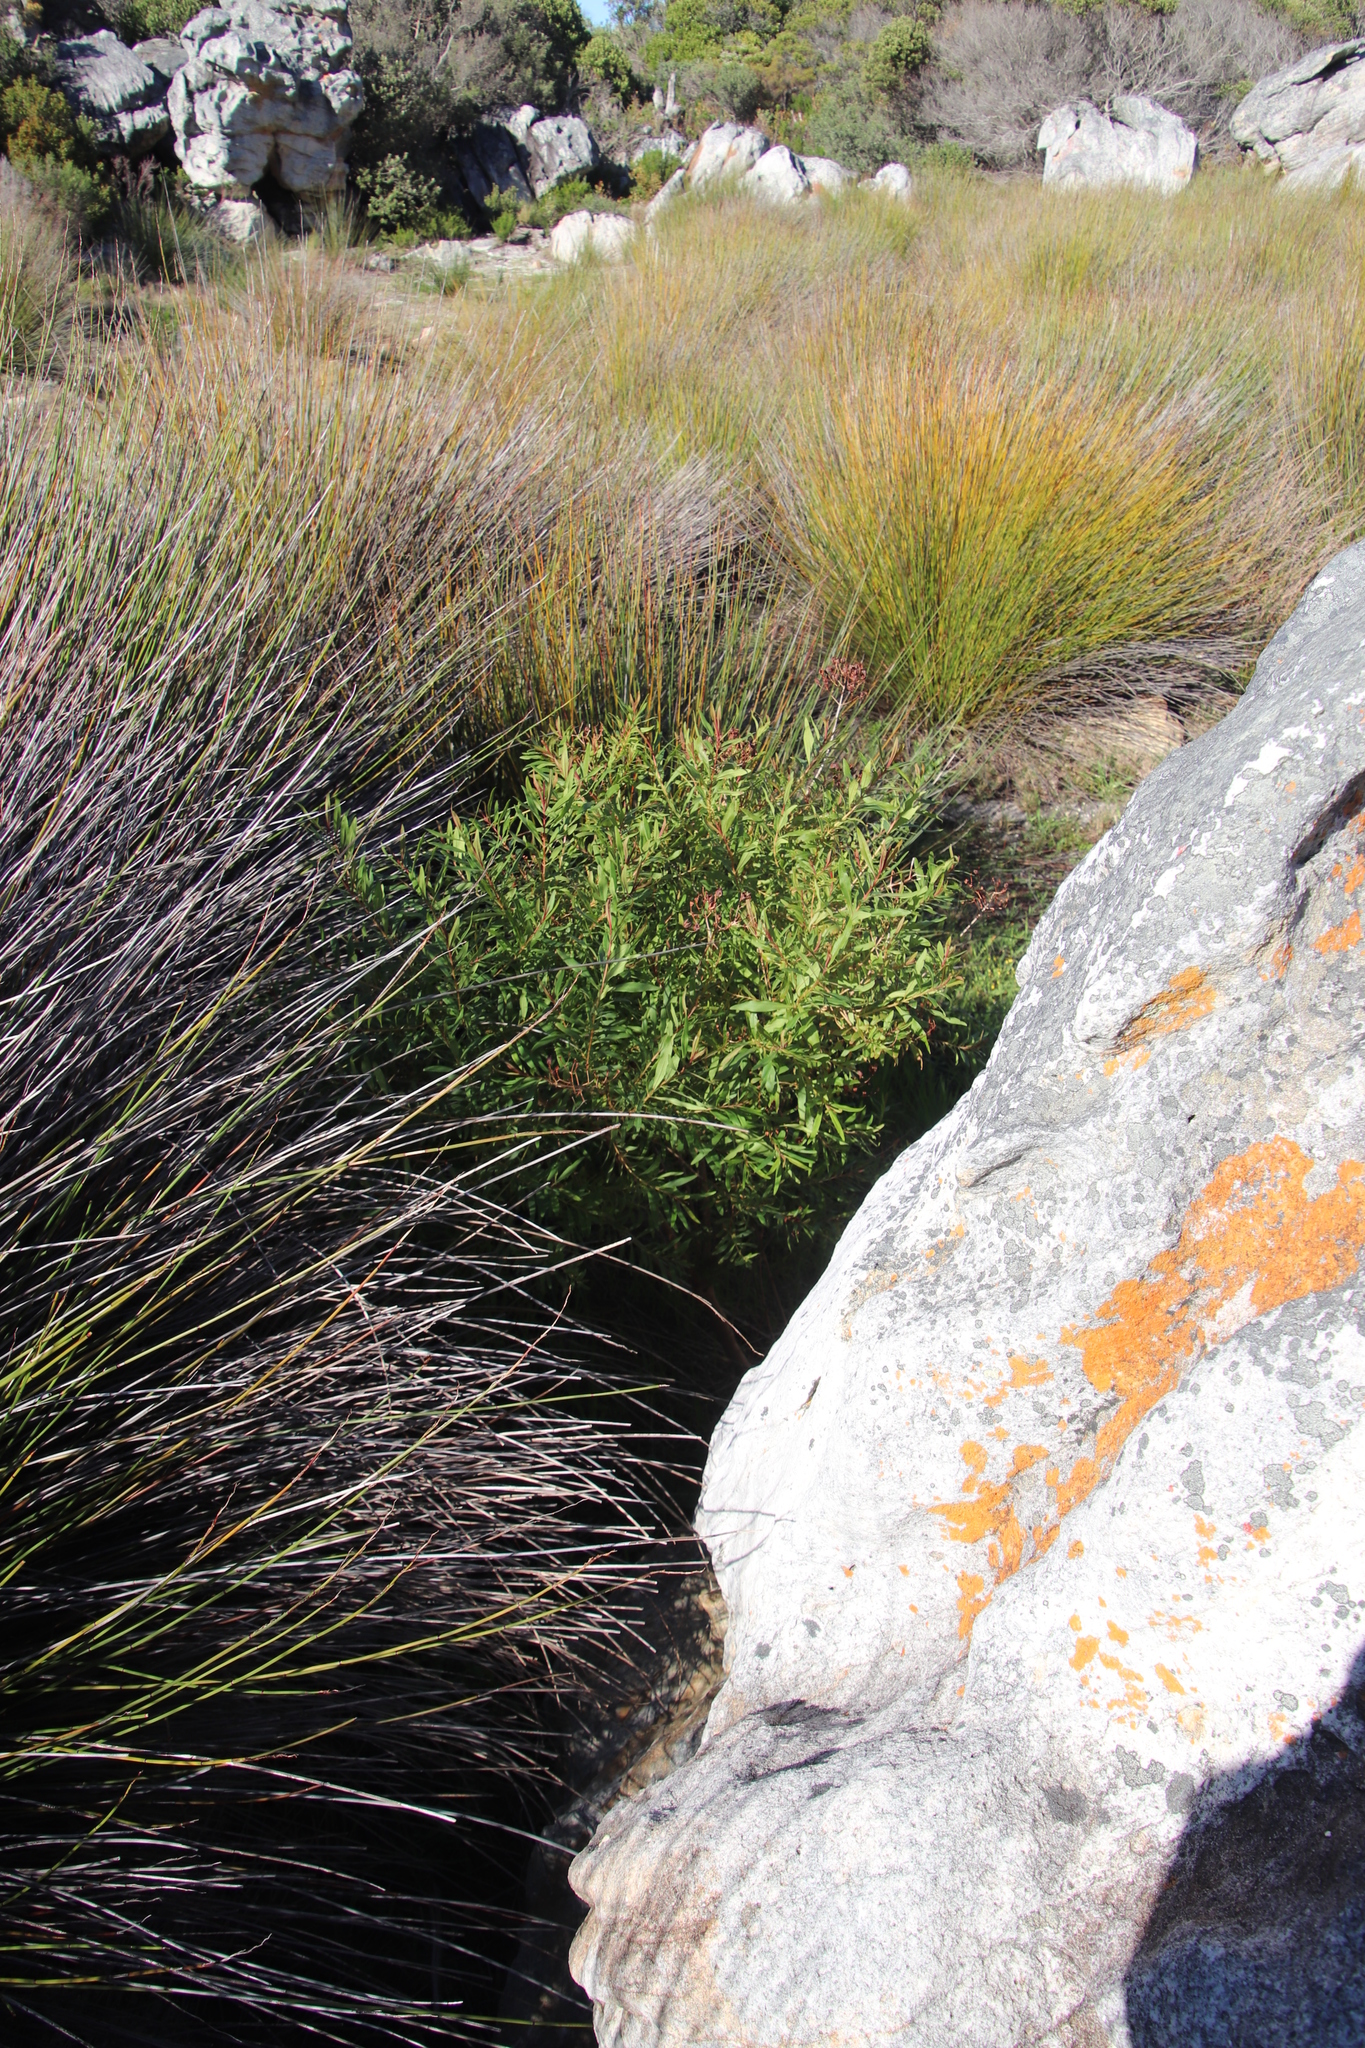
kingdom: Plantae
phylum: Tracheophyta
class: Magnoliopsida
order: Malpighiales
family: Hypericaceae
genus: Hypericum
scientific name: Hypericum canariense
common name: Canary island st. johnswort
